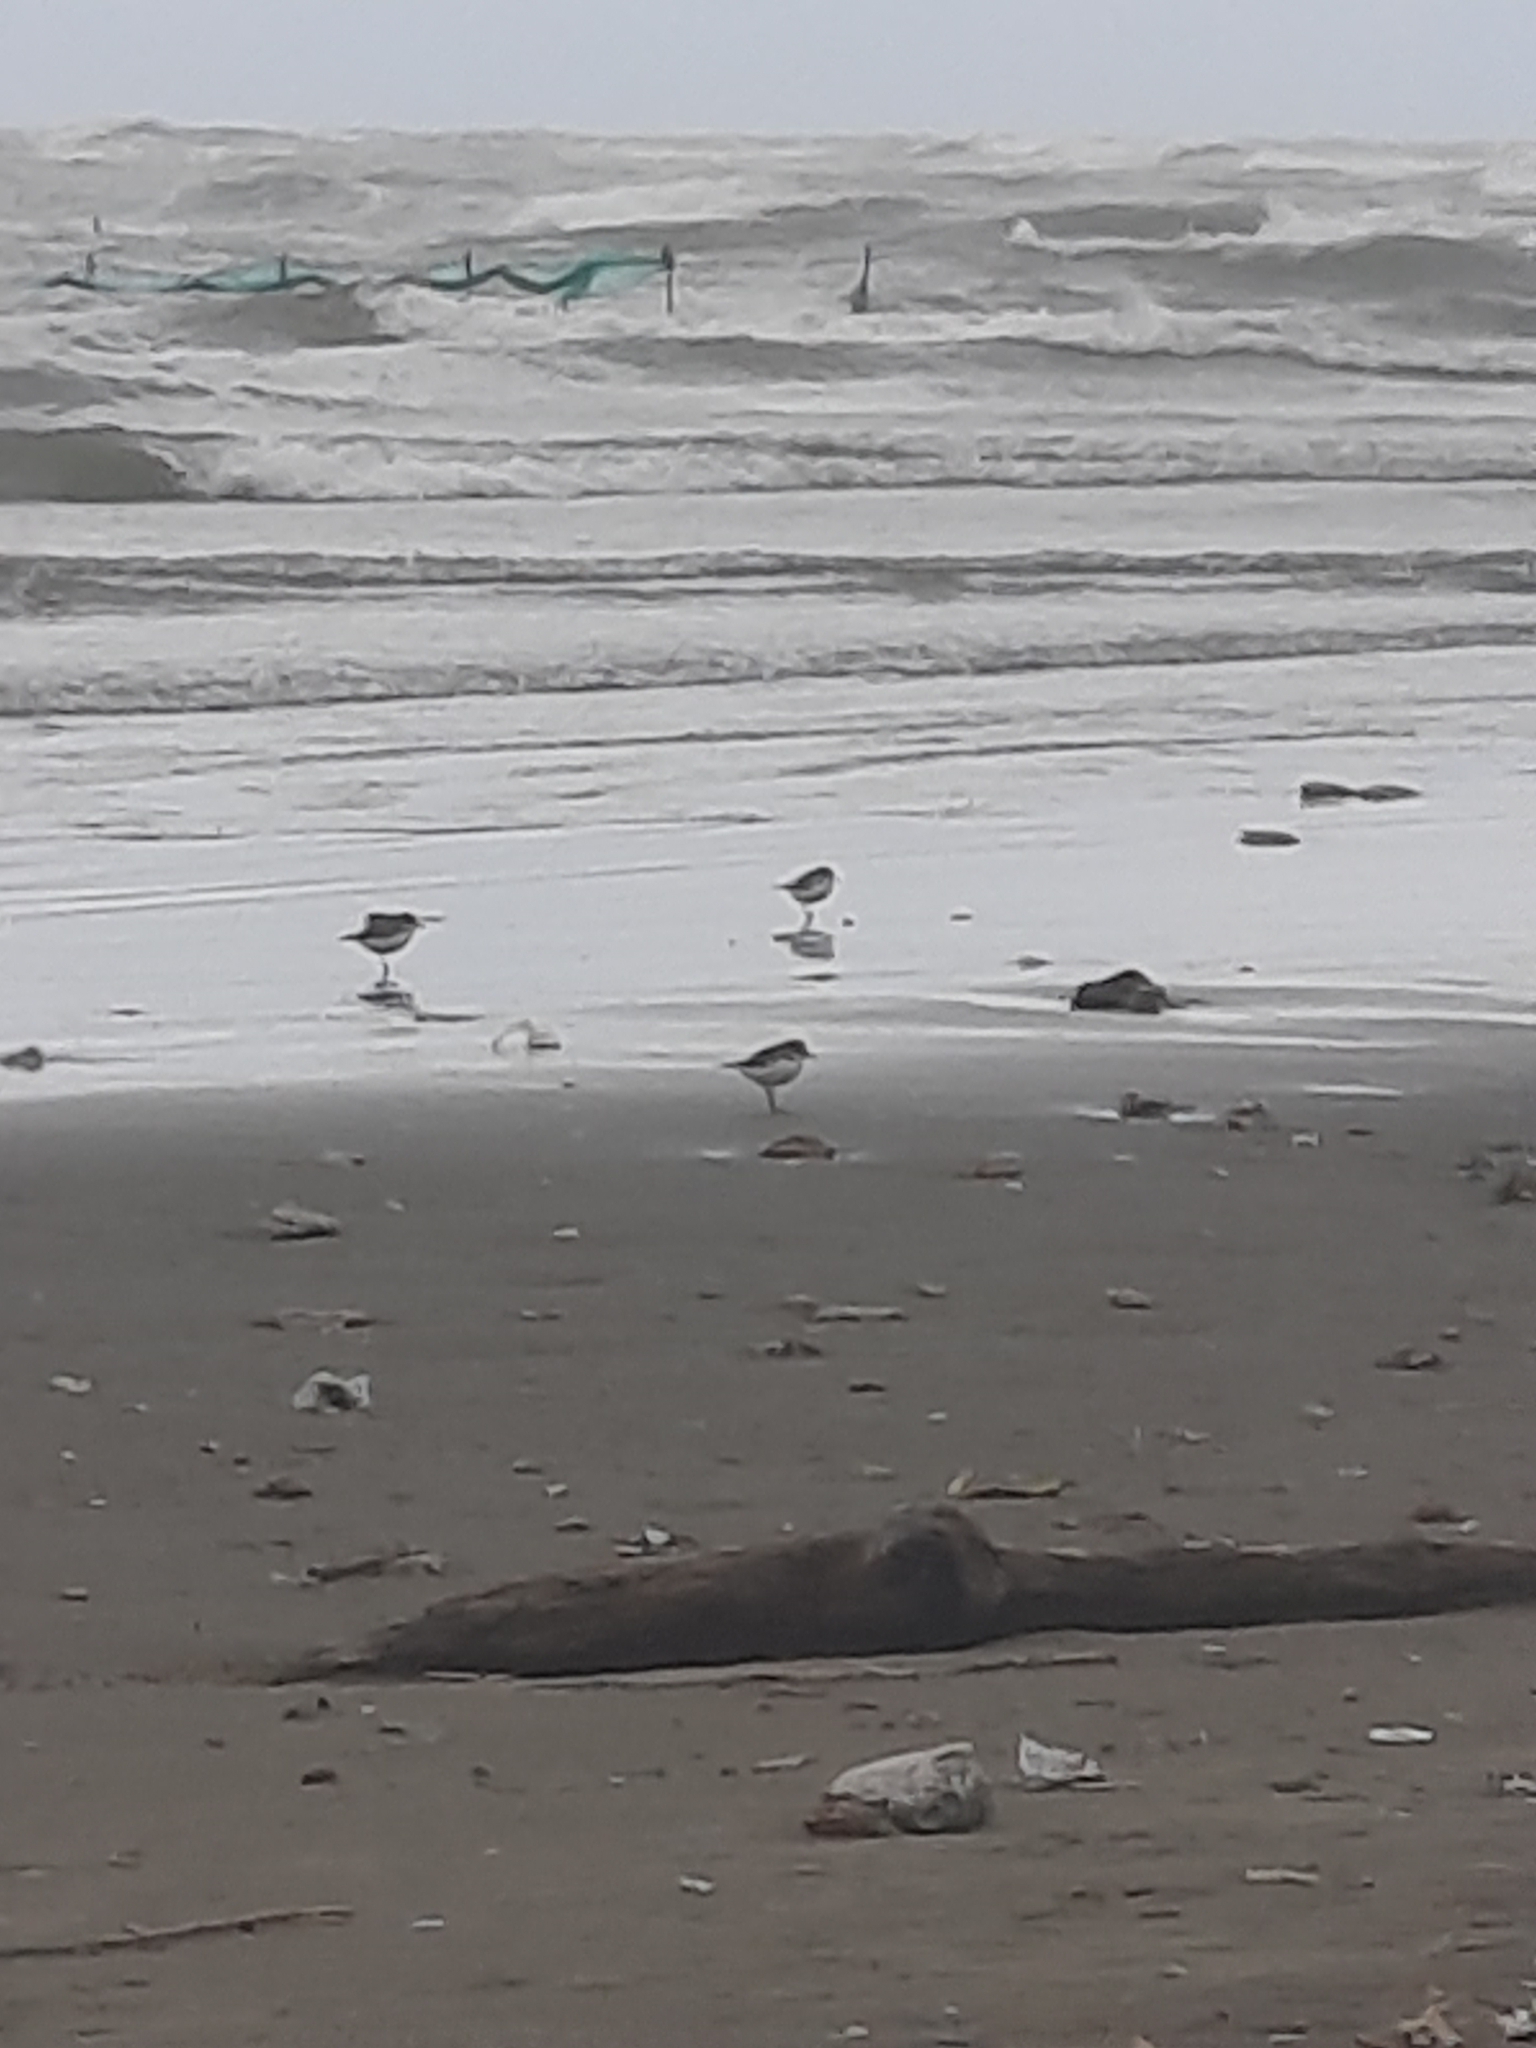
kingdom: Animalia
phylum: Chordata
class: Aves
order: Charadriiformes
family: Charadriidae
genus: Charadrius
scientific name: Charadrius alexandrinus
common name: Kentish plover
